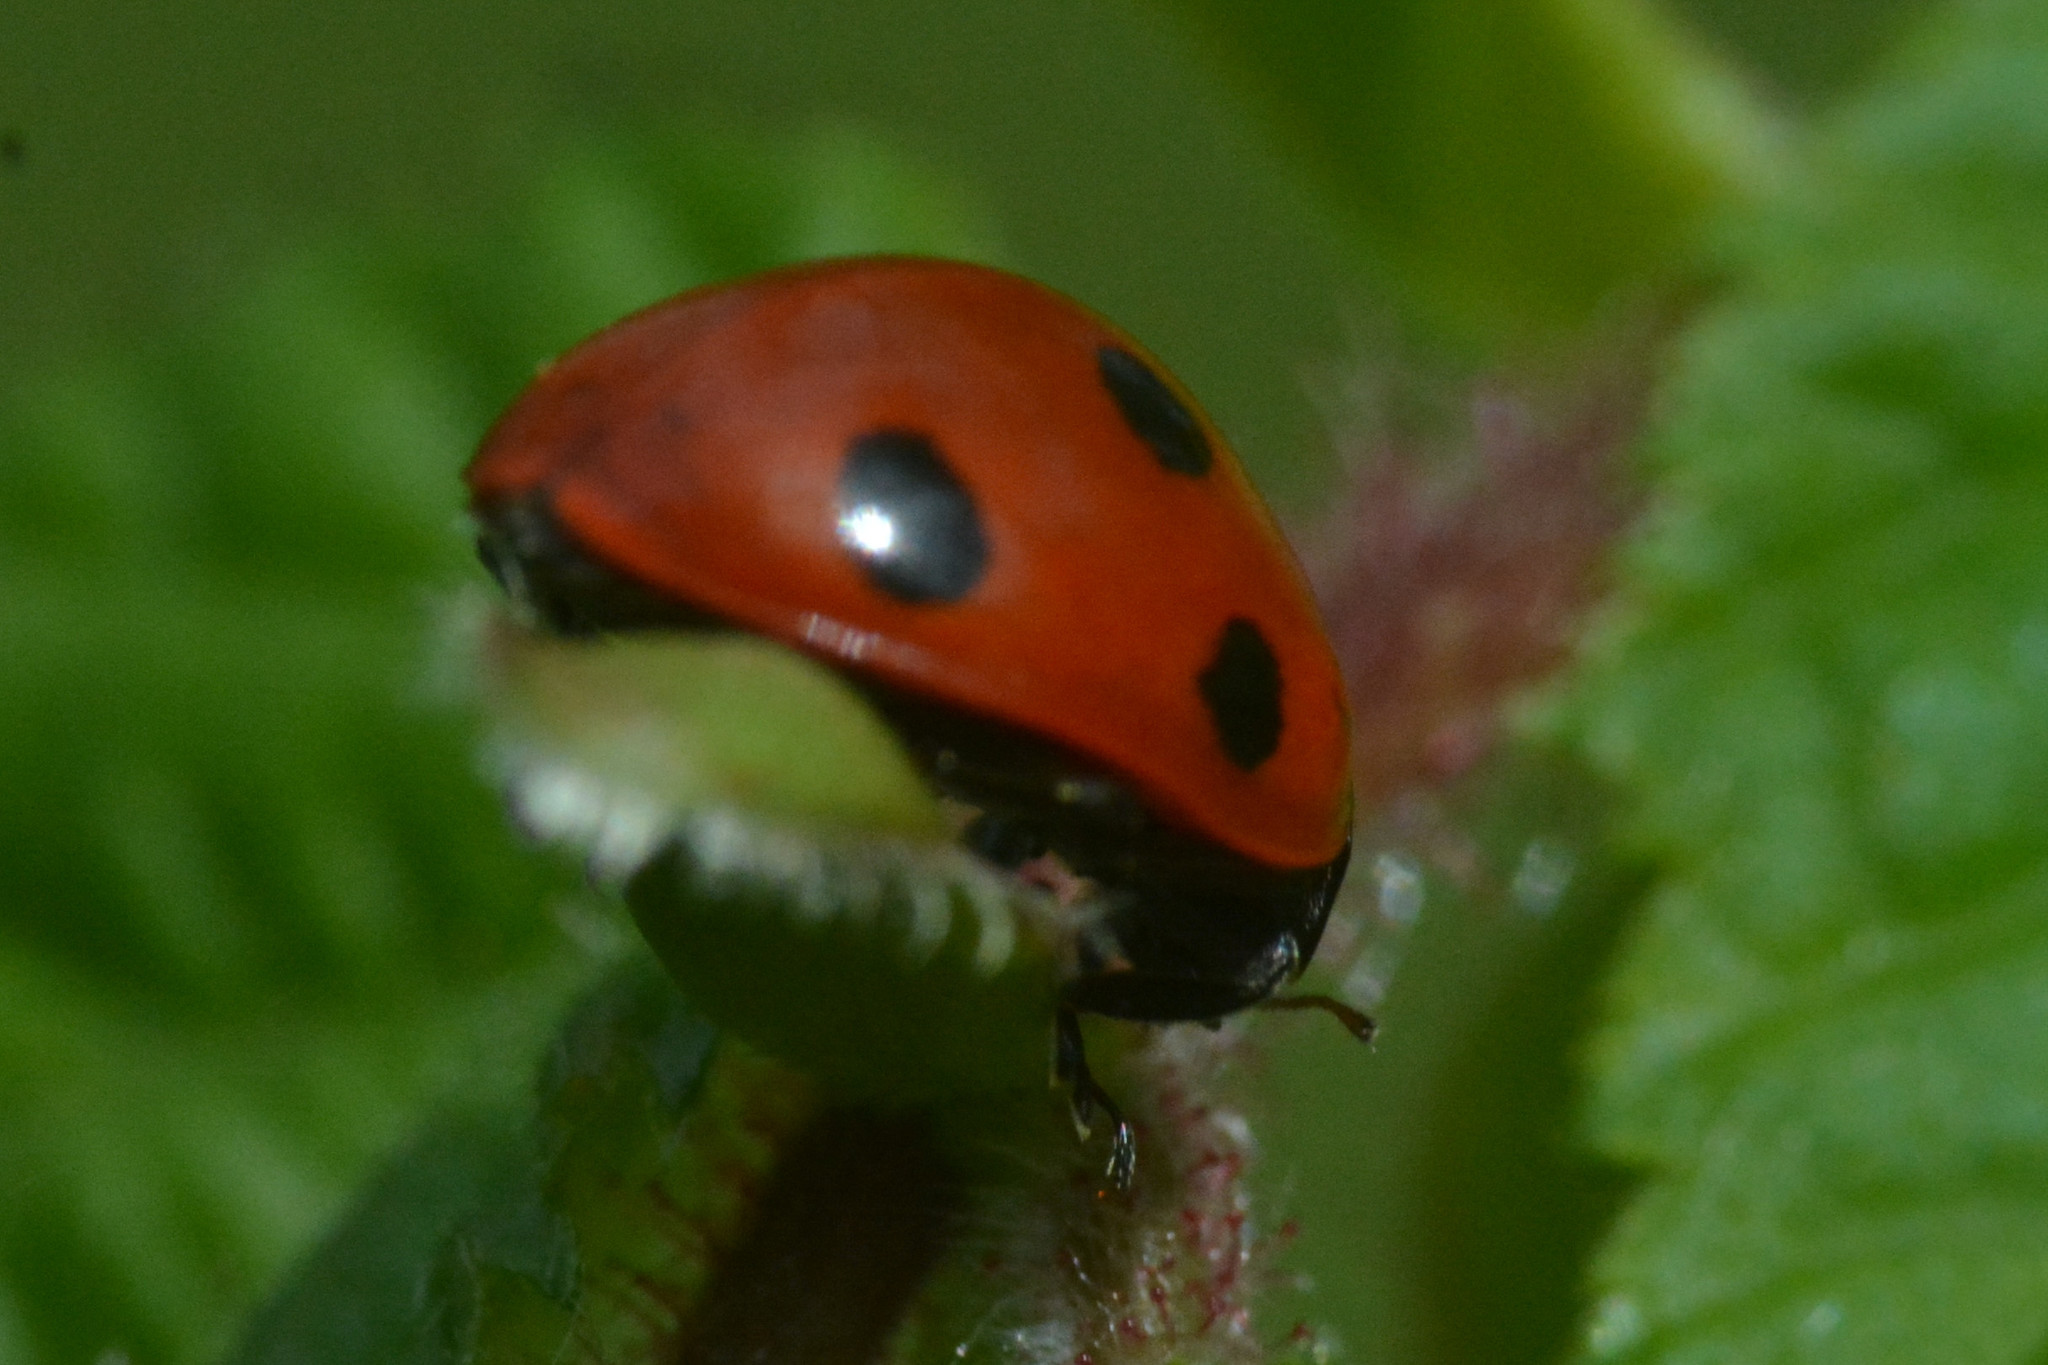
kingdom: Animalia
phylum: Arthropoda
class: Insecta
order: Coleoptera
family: Coccinellidae
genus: Coccinella
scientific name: Coccinella septempunctata
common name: Sevenspotted lady beetle
